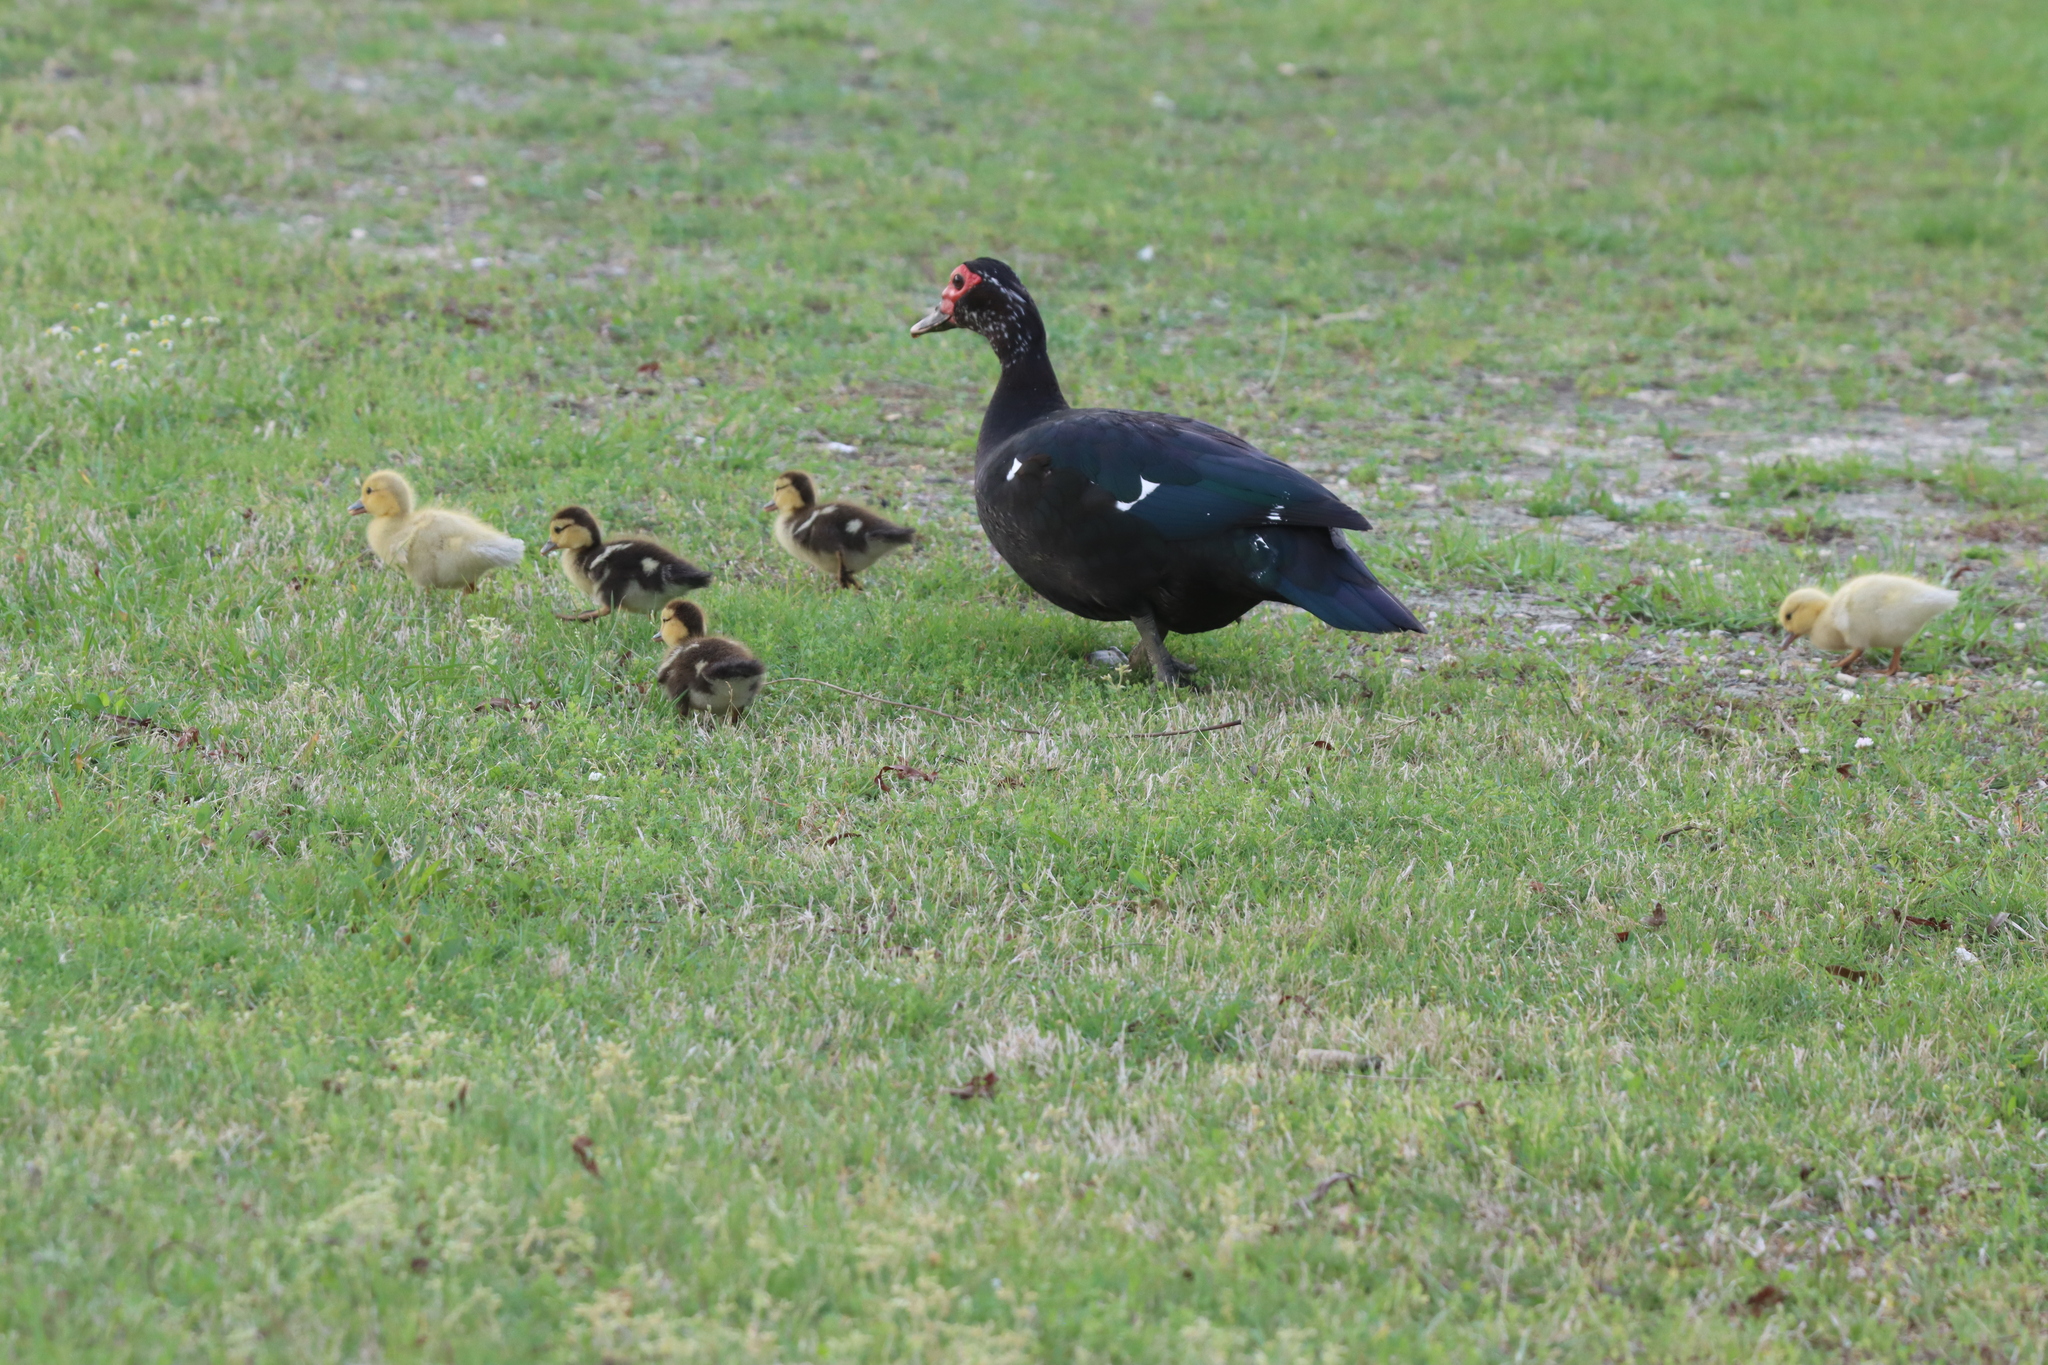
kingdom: Animalia
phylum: Chordata
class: Aves
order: Anseriformes
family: Anatidae
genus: Cairina
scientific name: Cairina moschata
